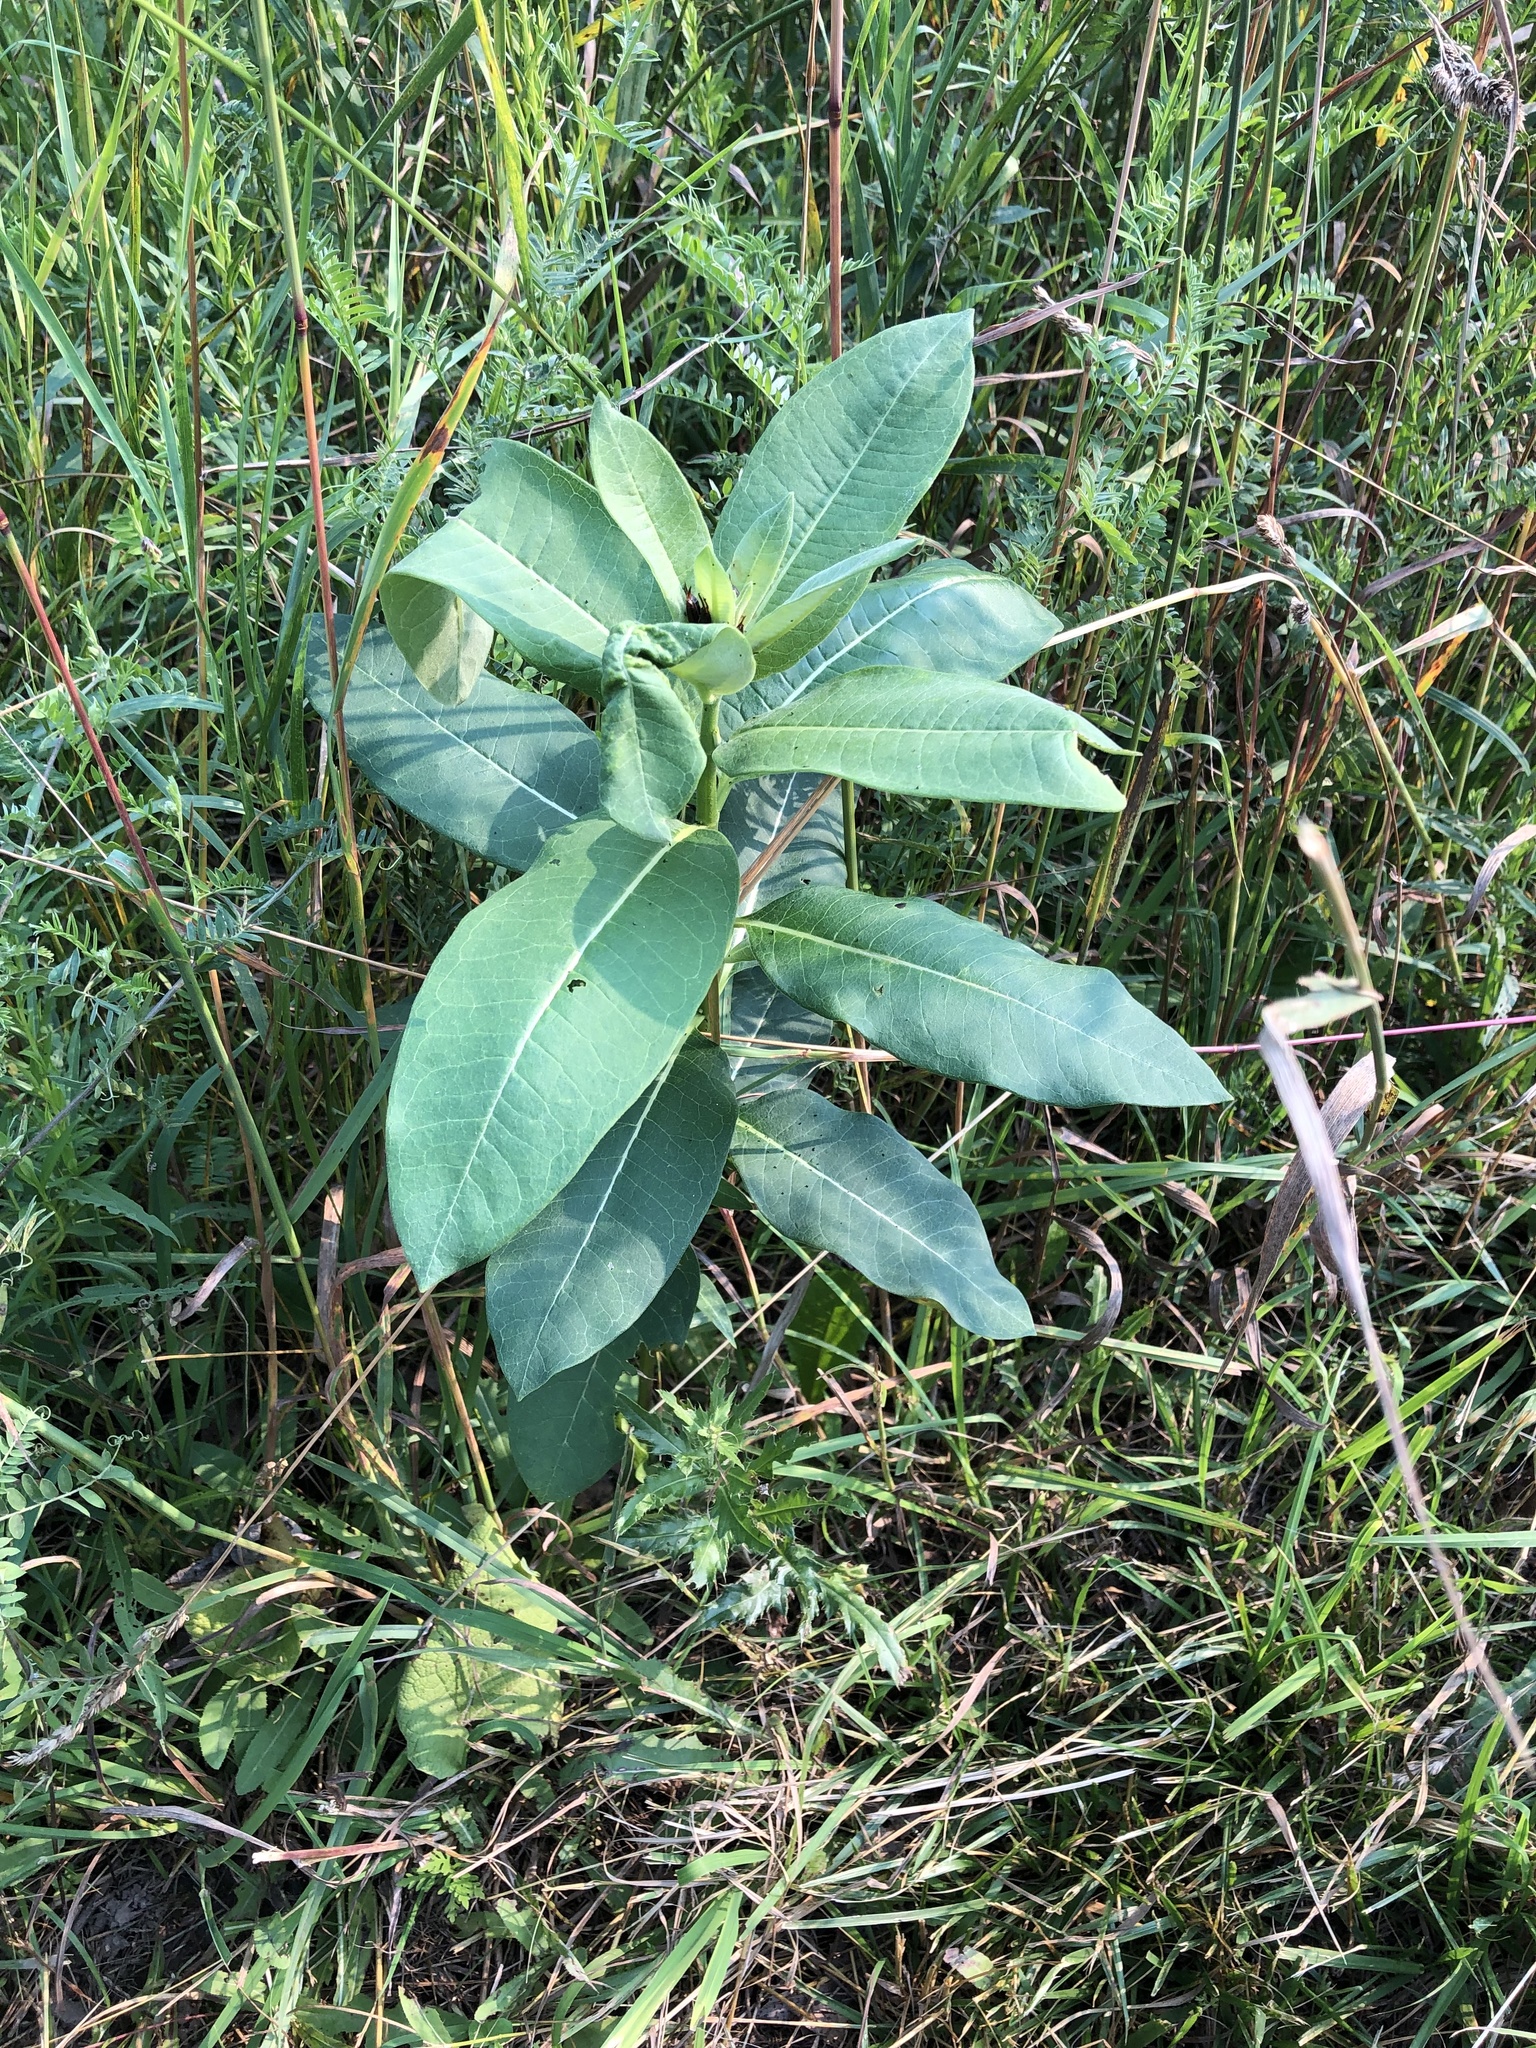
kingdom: Plantae
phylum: Tracheophyta
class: Magnoliopsida
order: Gentianales
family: Apocynaceae
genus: Asclepias
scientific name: Asclepias syriaca
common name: Common milkweed
